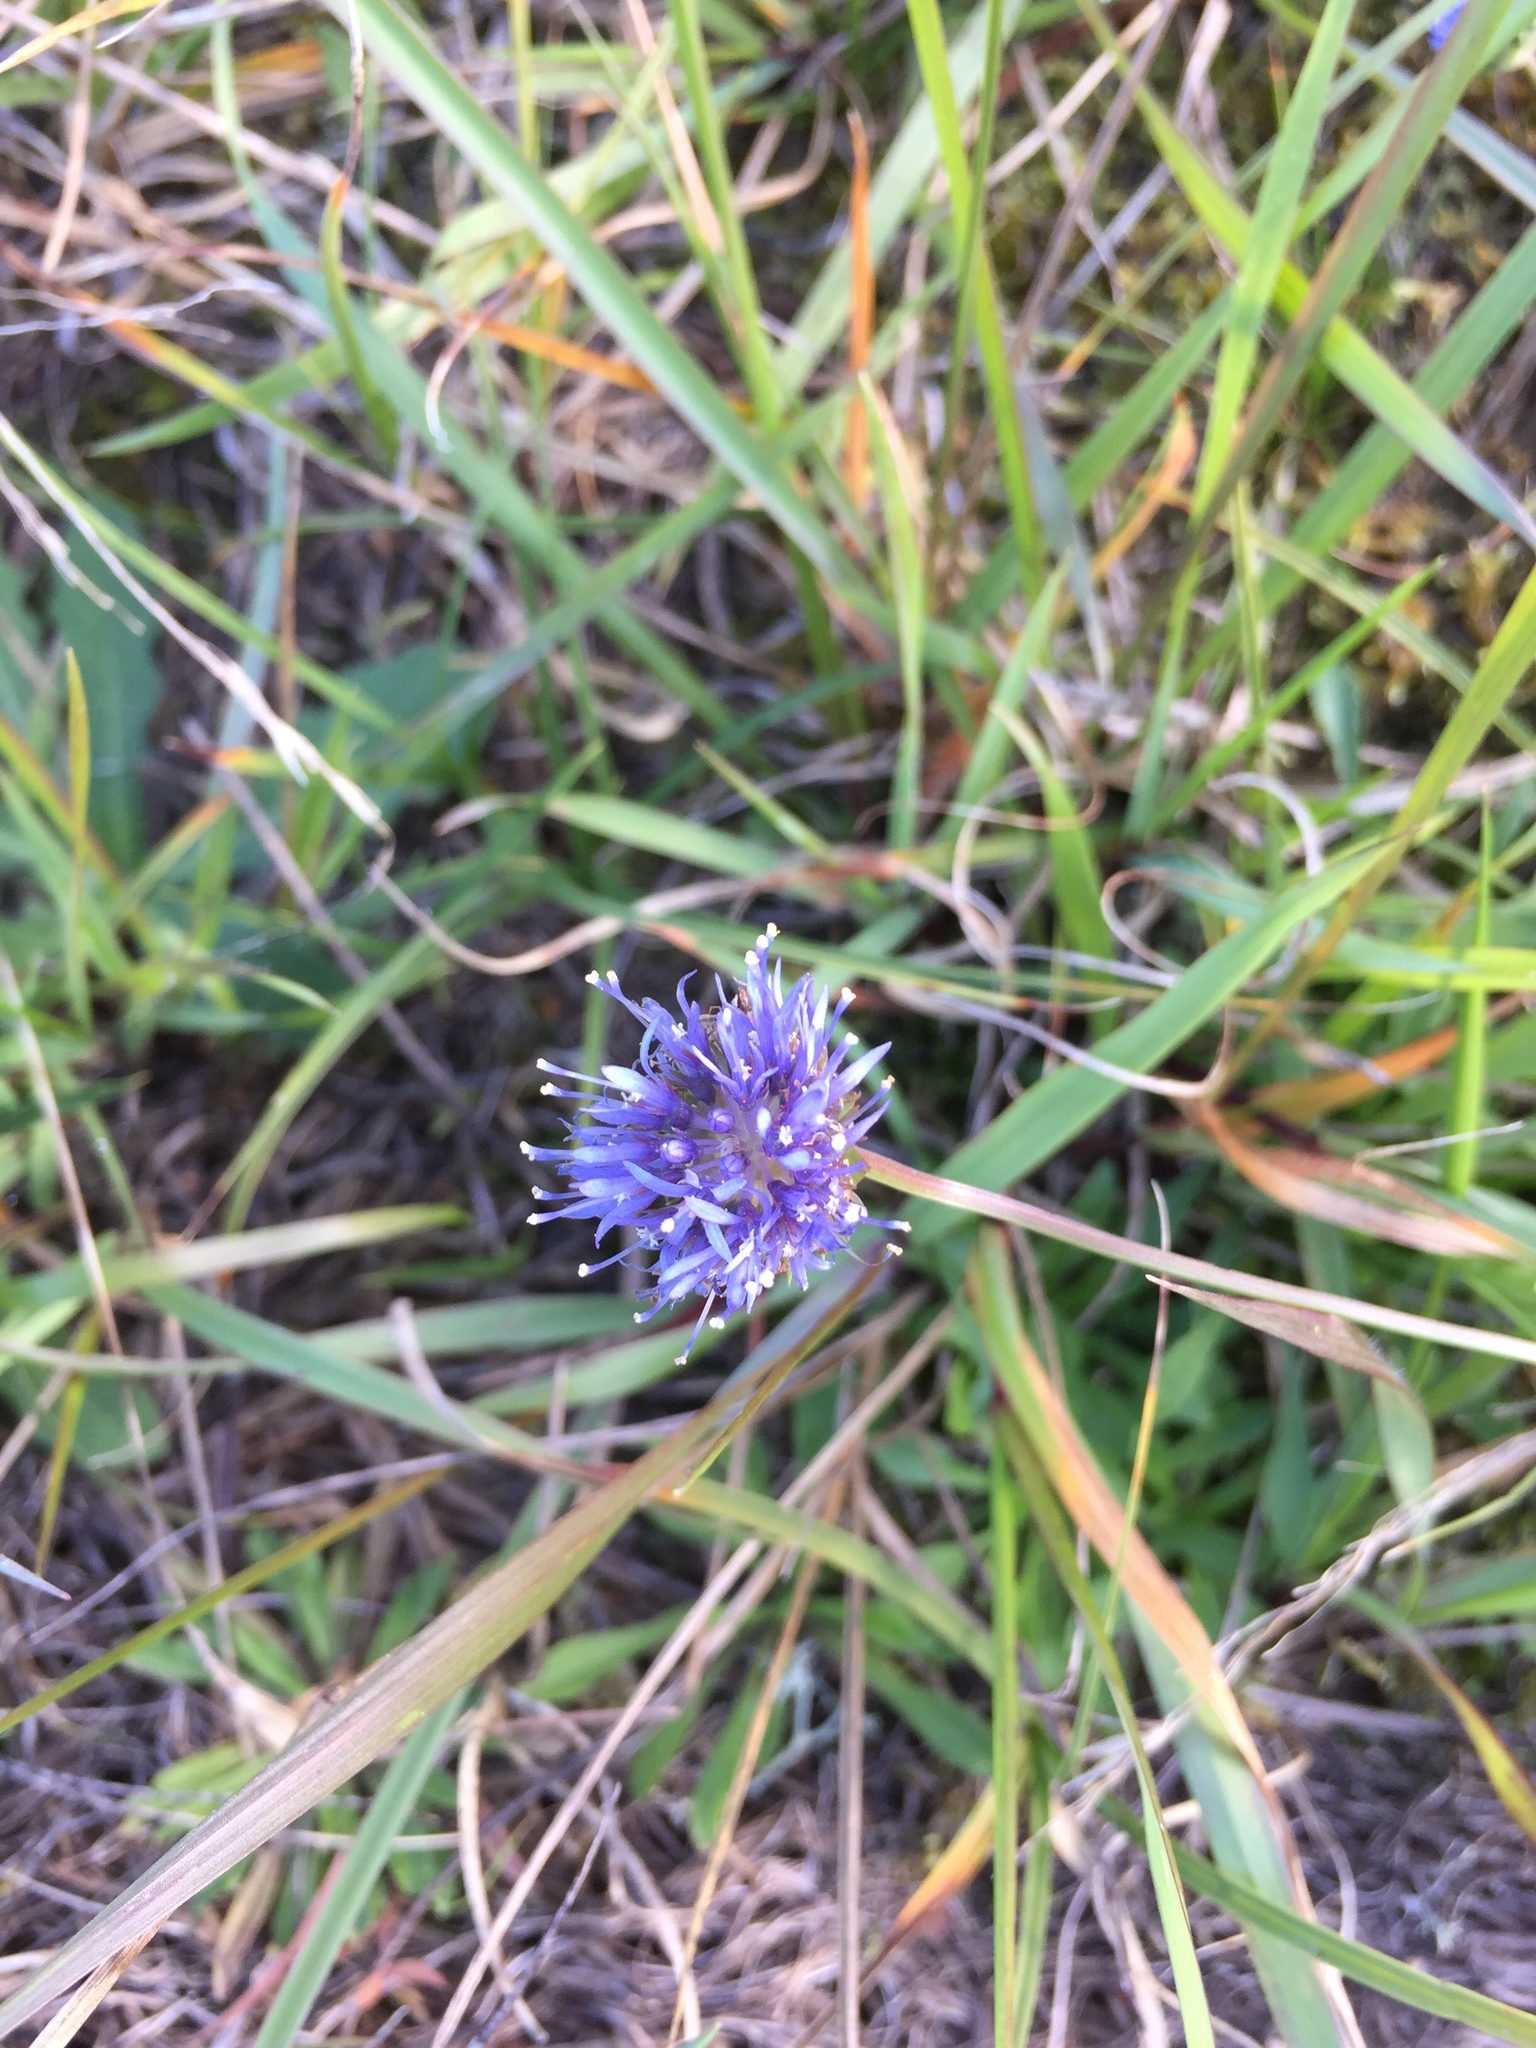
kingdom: Plantae
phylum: Tracheophyta
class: Magnoliopsida
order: Asterales
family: Campanulaceae
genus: Jasione
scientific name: Jasione montana
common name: Sheep's-bit
